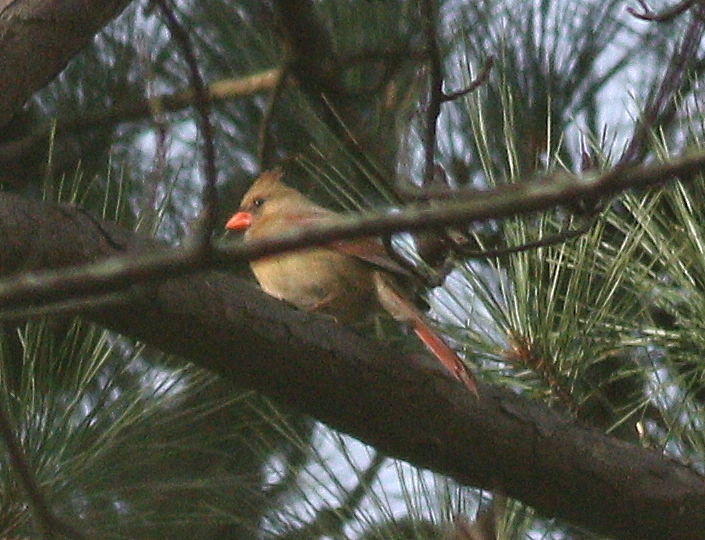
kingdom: Animalia
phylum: Chordata
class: Aves
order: Passeriformes
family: Cardinalidae
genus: Cardinalis
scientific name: Cardinalis cardinalis
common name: Northern cardinal
